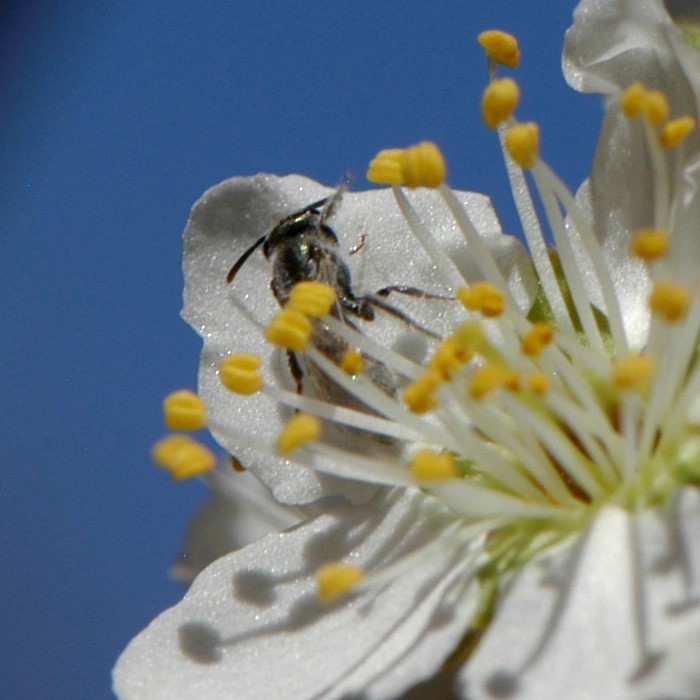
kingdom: Animalia
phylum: Arthropoda
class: Insecta
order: Hymenoptera
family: Halictidae
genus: Dialictus
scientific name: Dialictus
